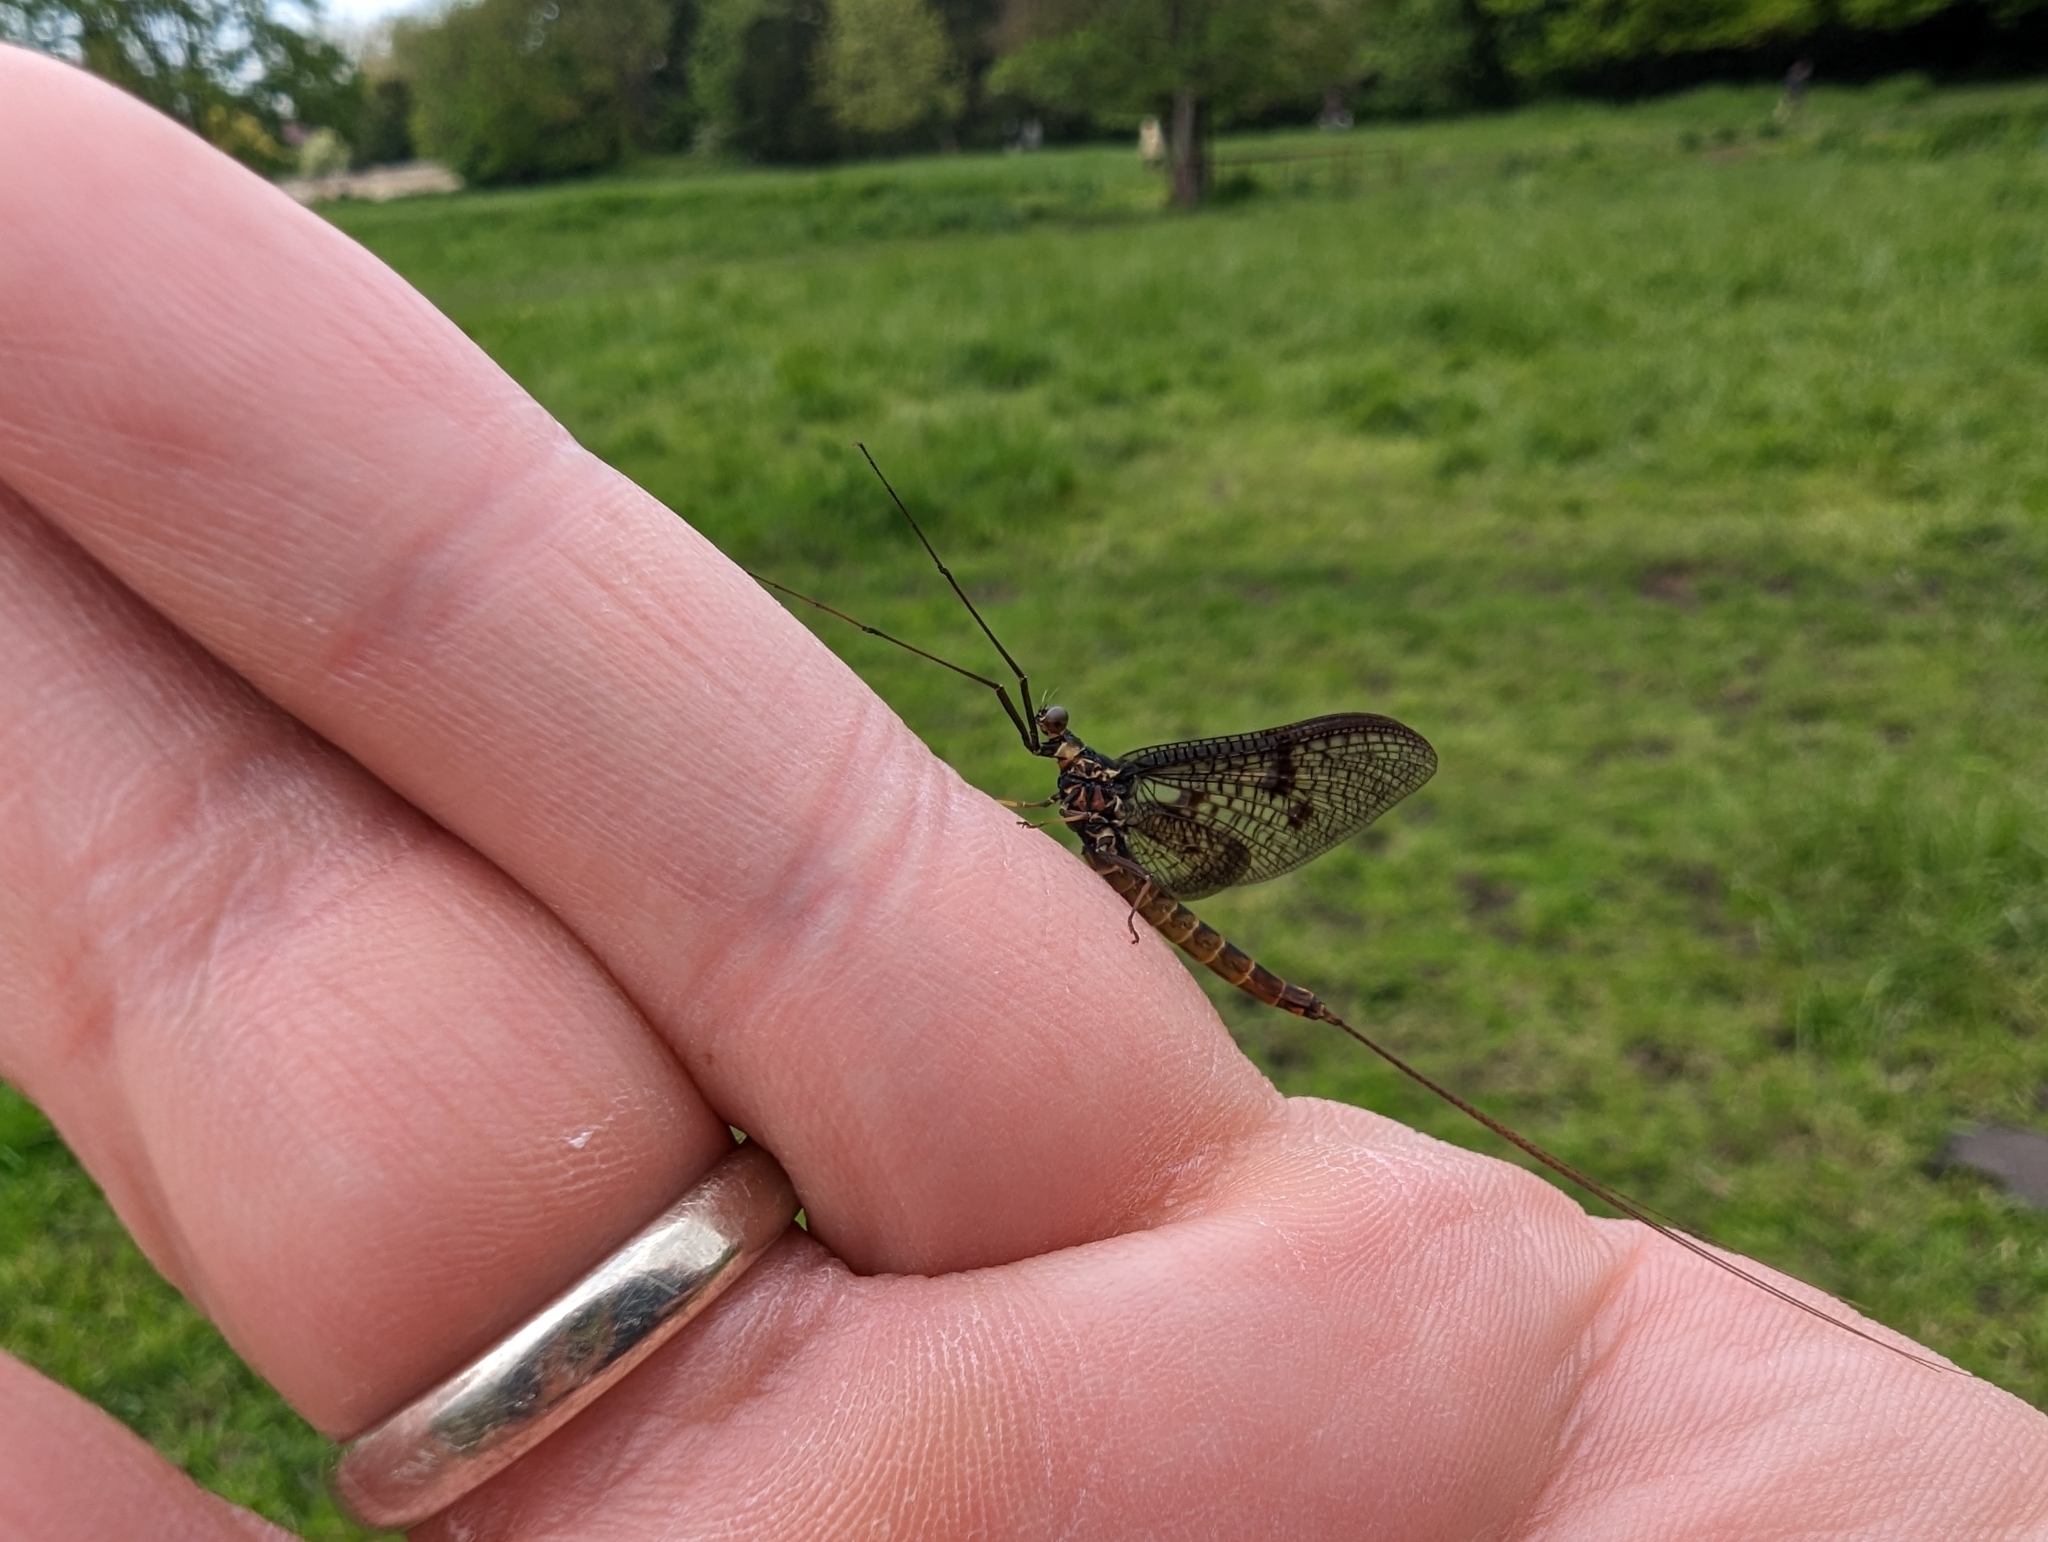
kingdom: Animalia
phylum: Arthropoda
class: Insecta
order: Ephemeroptera
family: Ephemeridae
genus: Ephemera
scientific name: Ephemera vulgata
